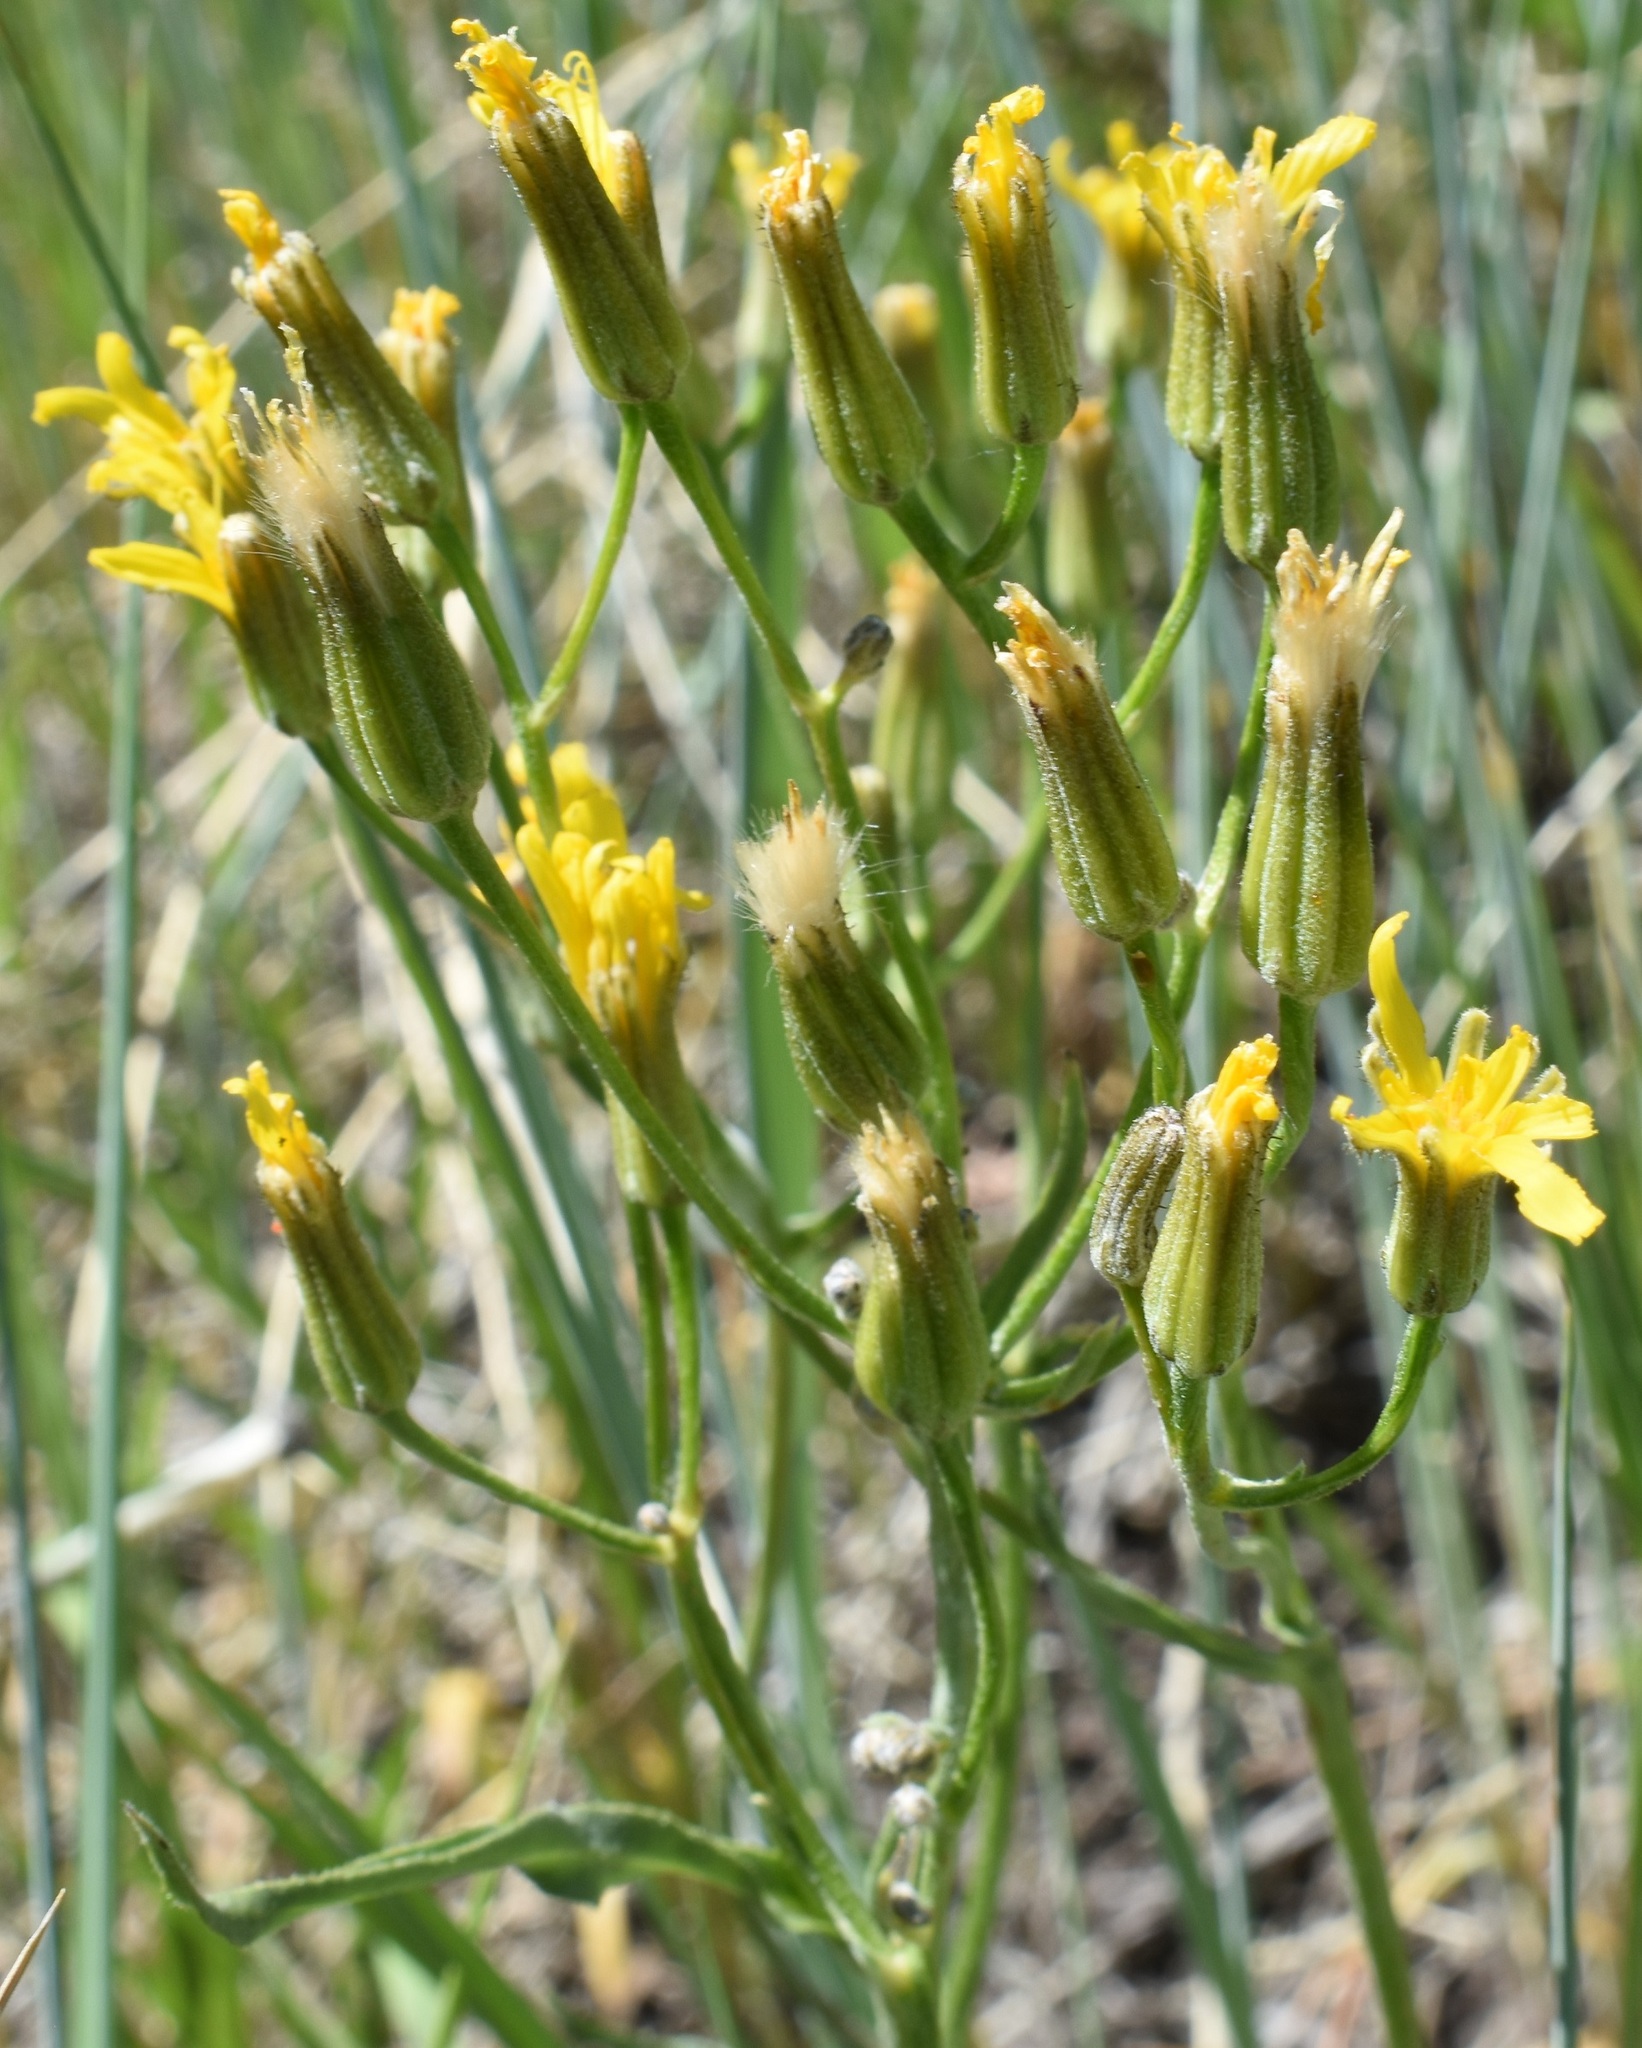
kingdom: Plantae
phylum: Tracheophyta
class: Magnoliopsida
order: Asterales
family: Asteraceae
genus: Crepis
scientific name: Crepis acuminata
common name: Longleaf hawk's-beard
